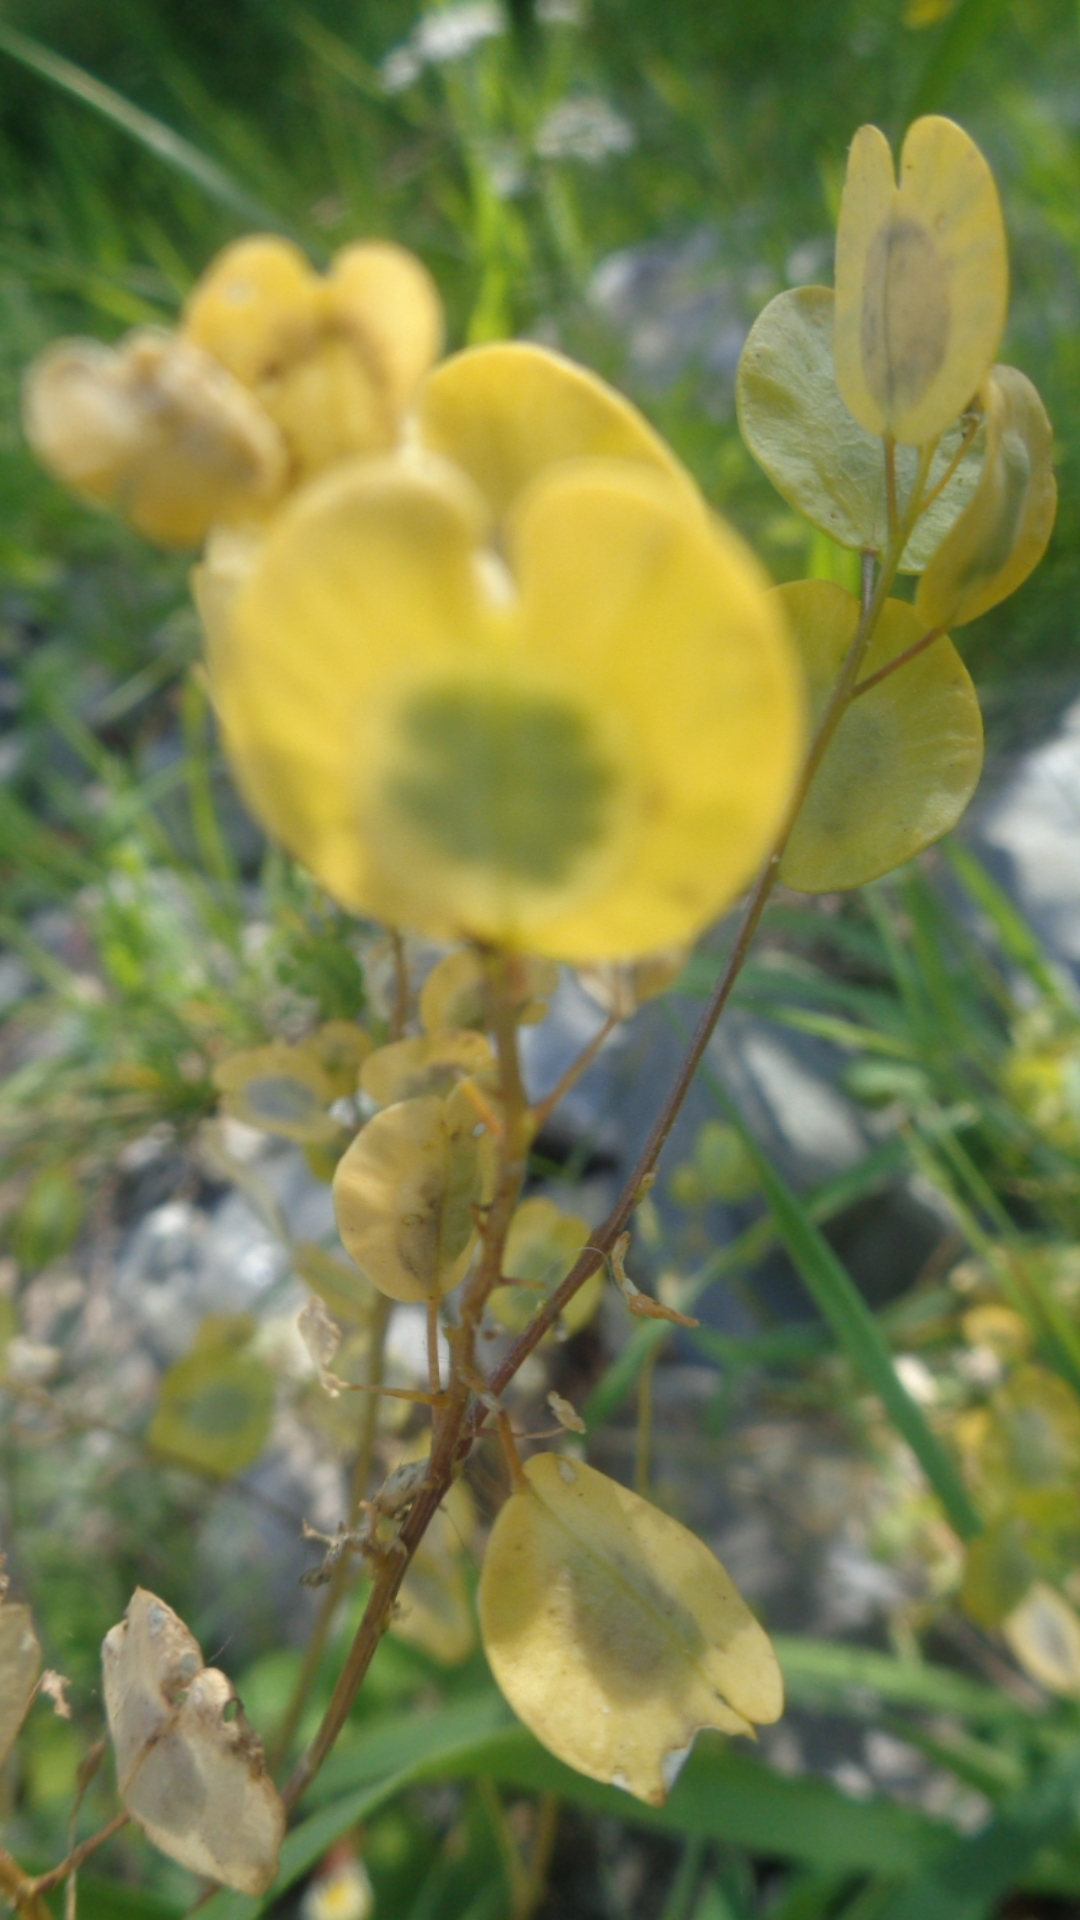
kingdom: Plantae
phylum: Tracheophyta
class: Magnoliopsida
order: Brassicales
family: Brassicaceae
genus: Thlaspi
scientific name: Thlaspi arvense
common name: Field pennycress
